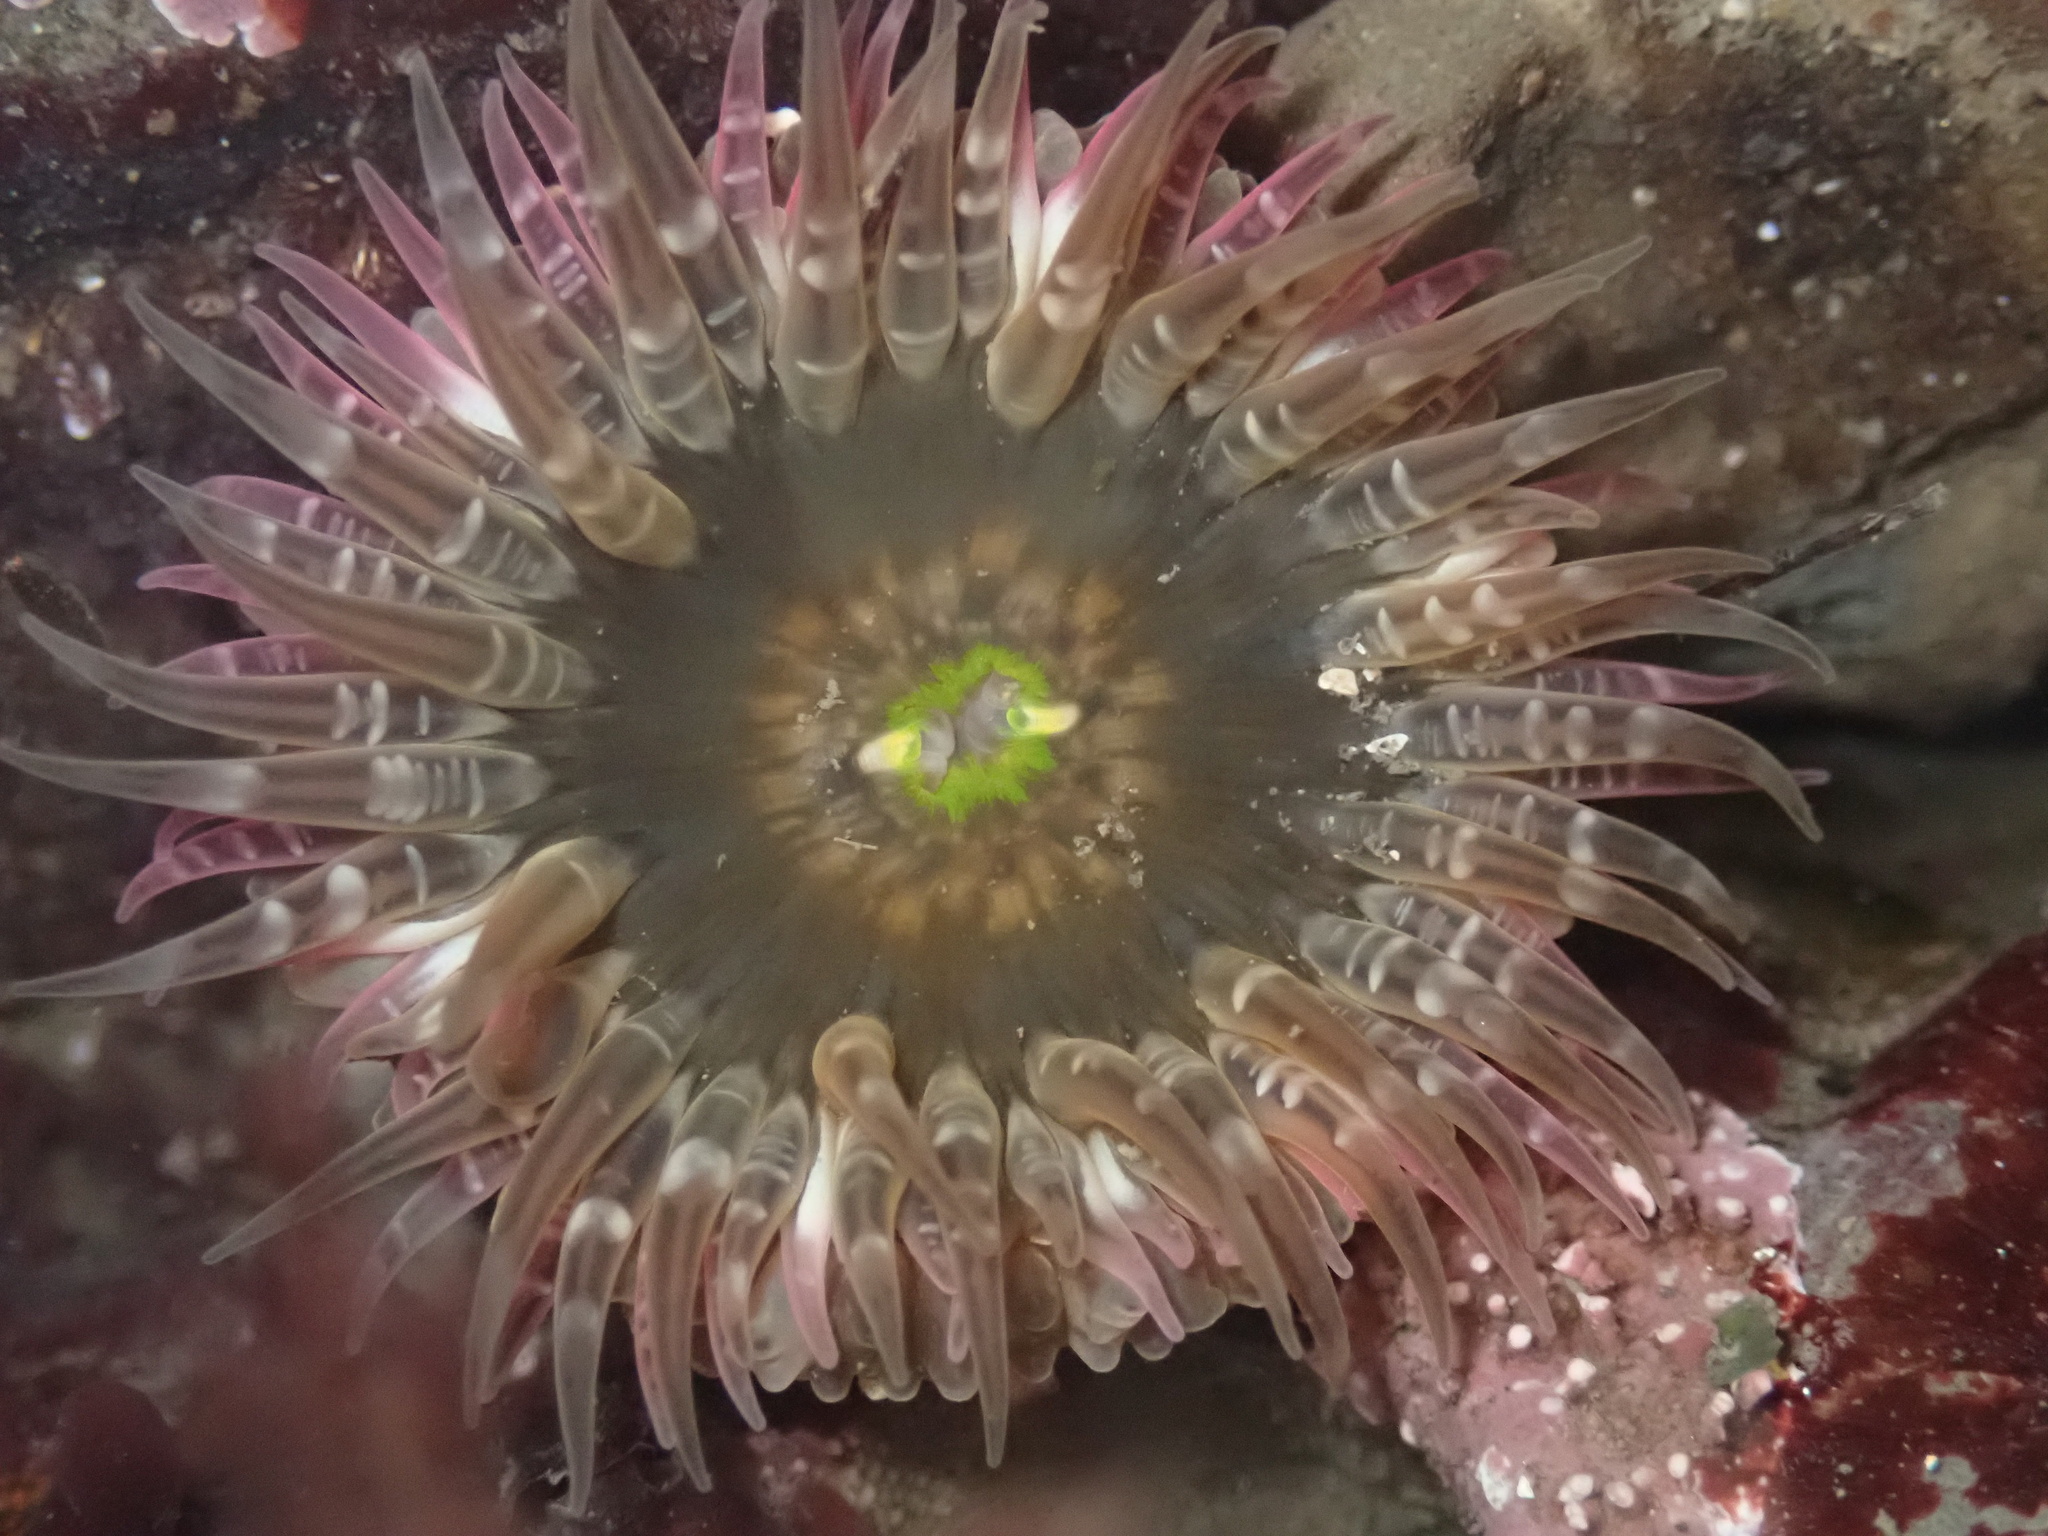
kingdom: Animalia
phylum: Cnidaria
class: Anthozoa
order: Actiniaria
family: Actiniidae
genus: Anthopleura
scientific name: Anthopleura artemisia
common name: Buried sea anemone
